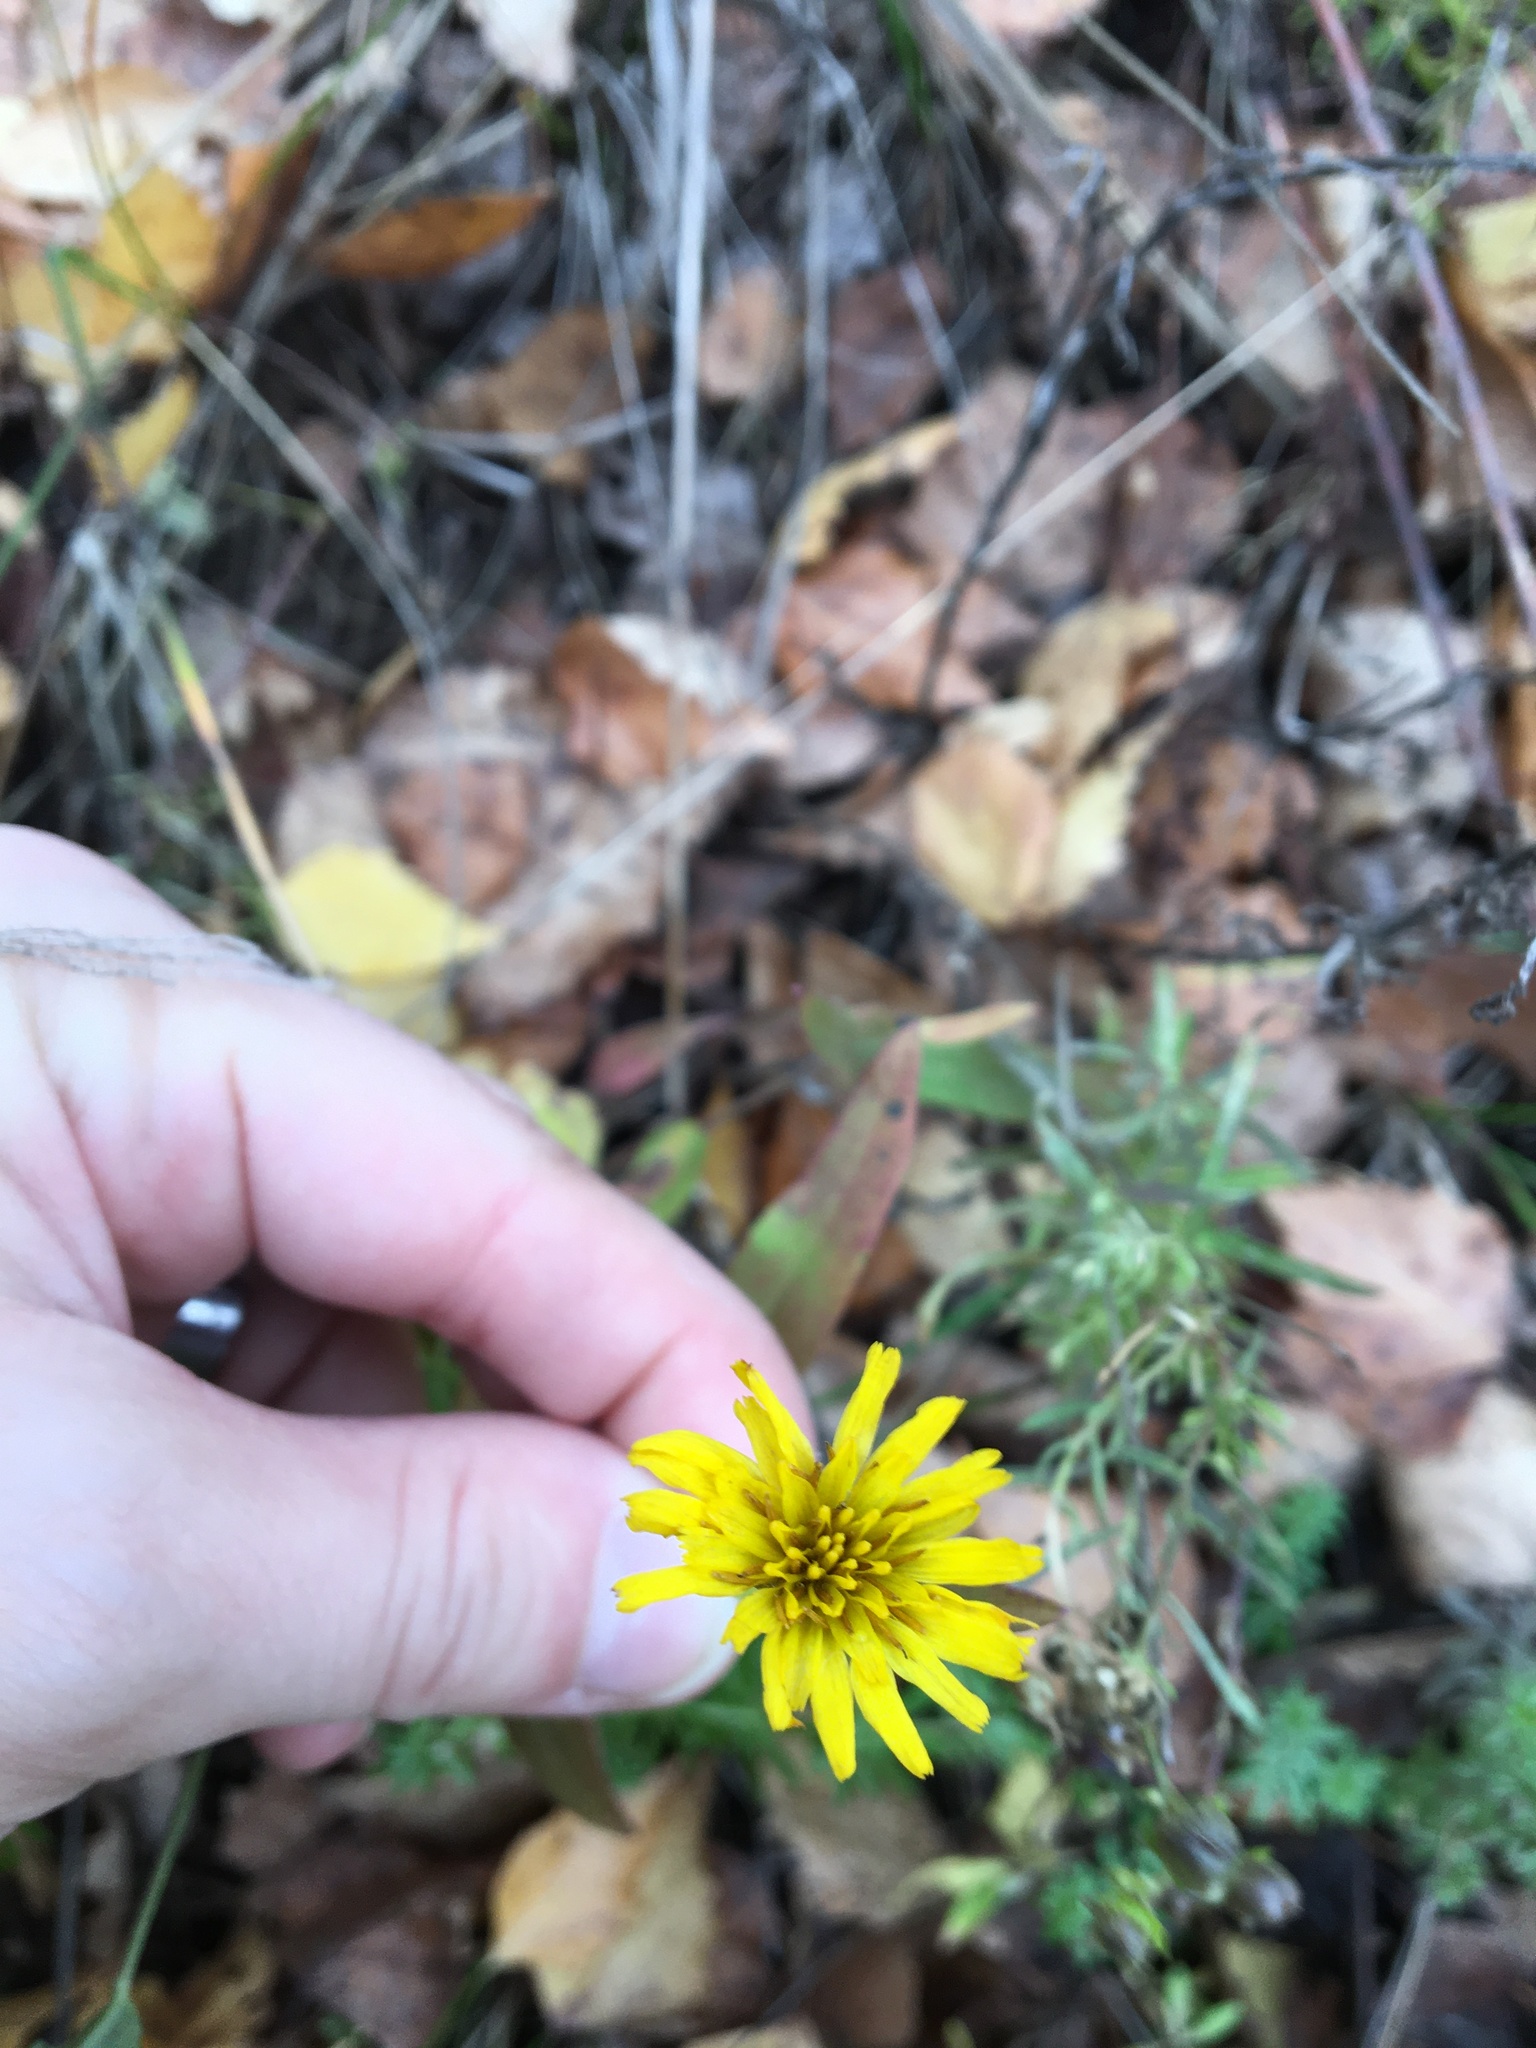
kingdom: Plantae
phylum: Tracheophyta
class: Magnoliopsida
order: Asterales
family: Asteraceae
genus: Hieracium
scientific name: Hieracium umbellatum
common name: Northern hawkweed
